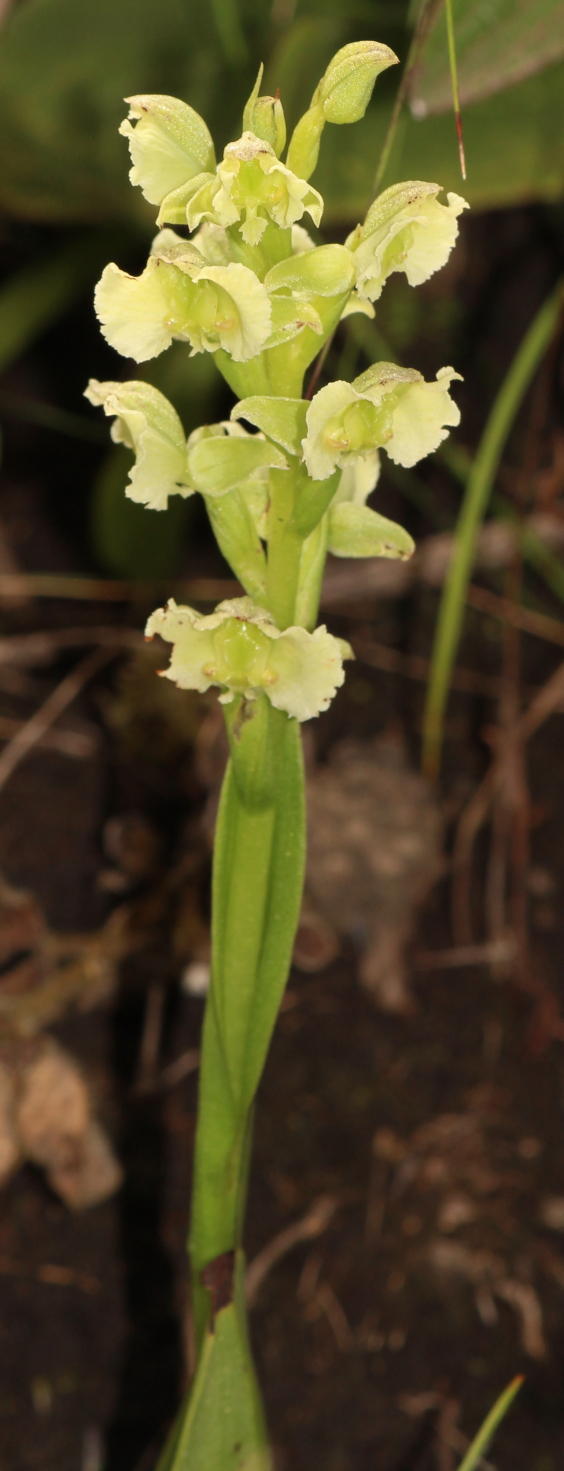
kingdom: Plantae
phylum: Tracheophyta
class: Liliopsida
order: Asparagales
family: Orchidaceae
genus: Pterygodium
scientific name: Pterygodium hastatum
